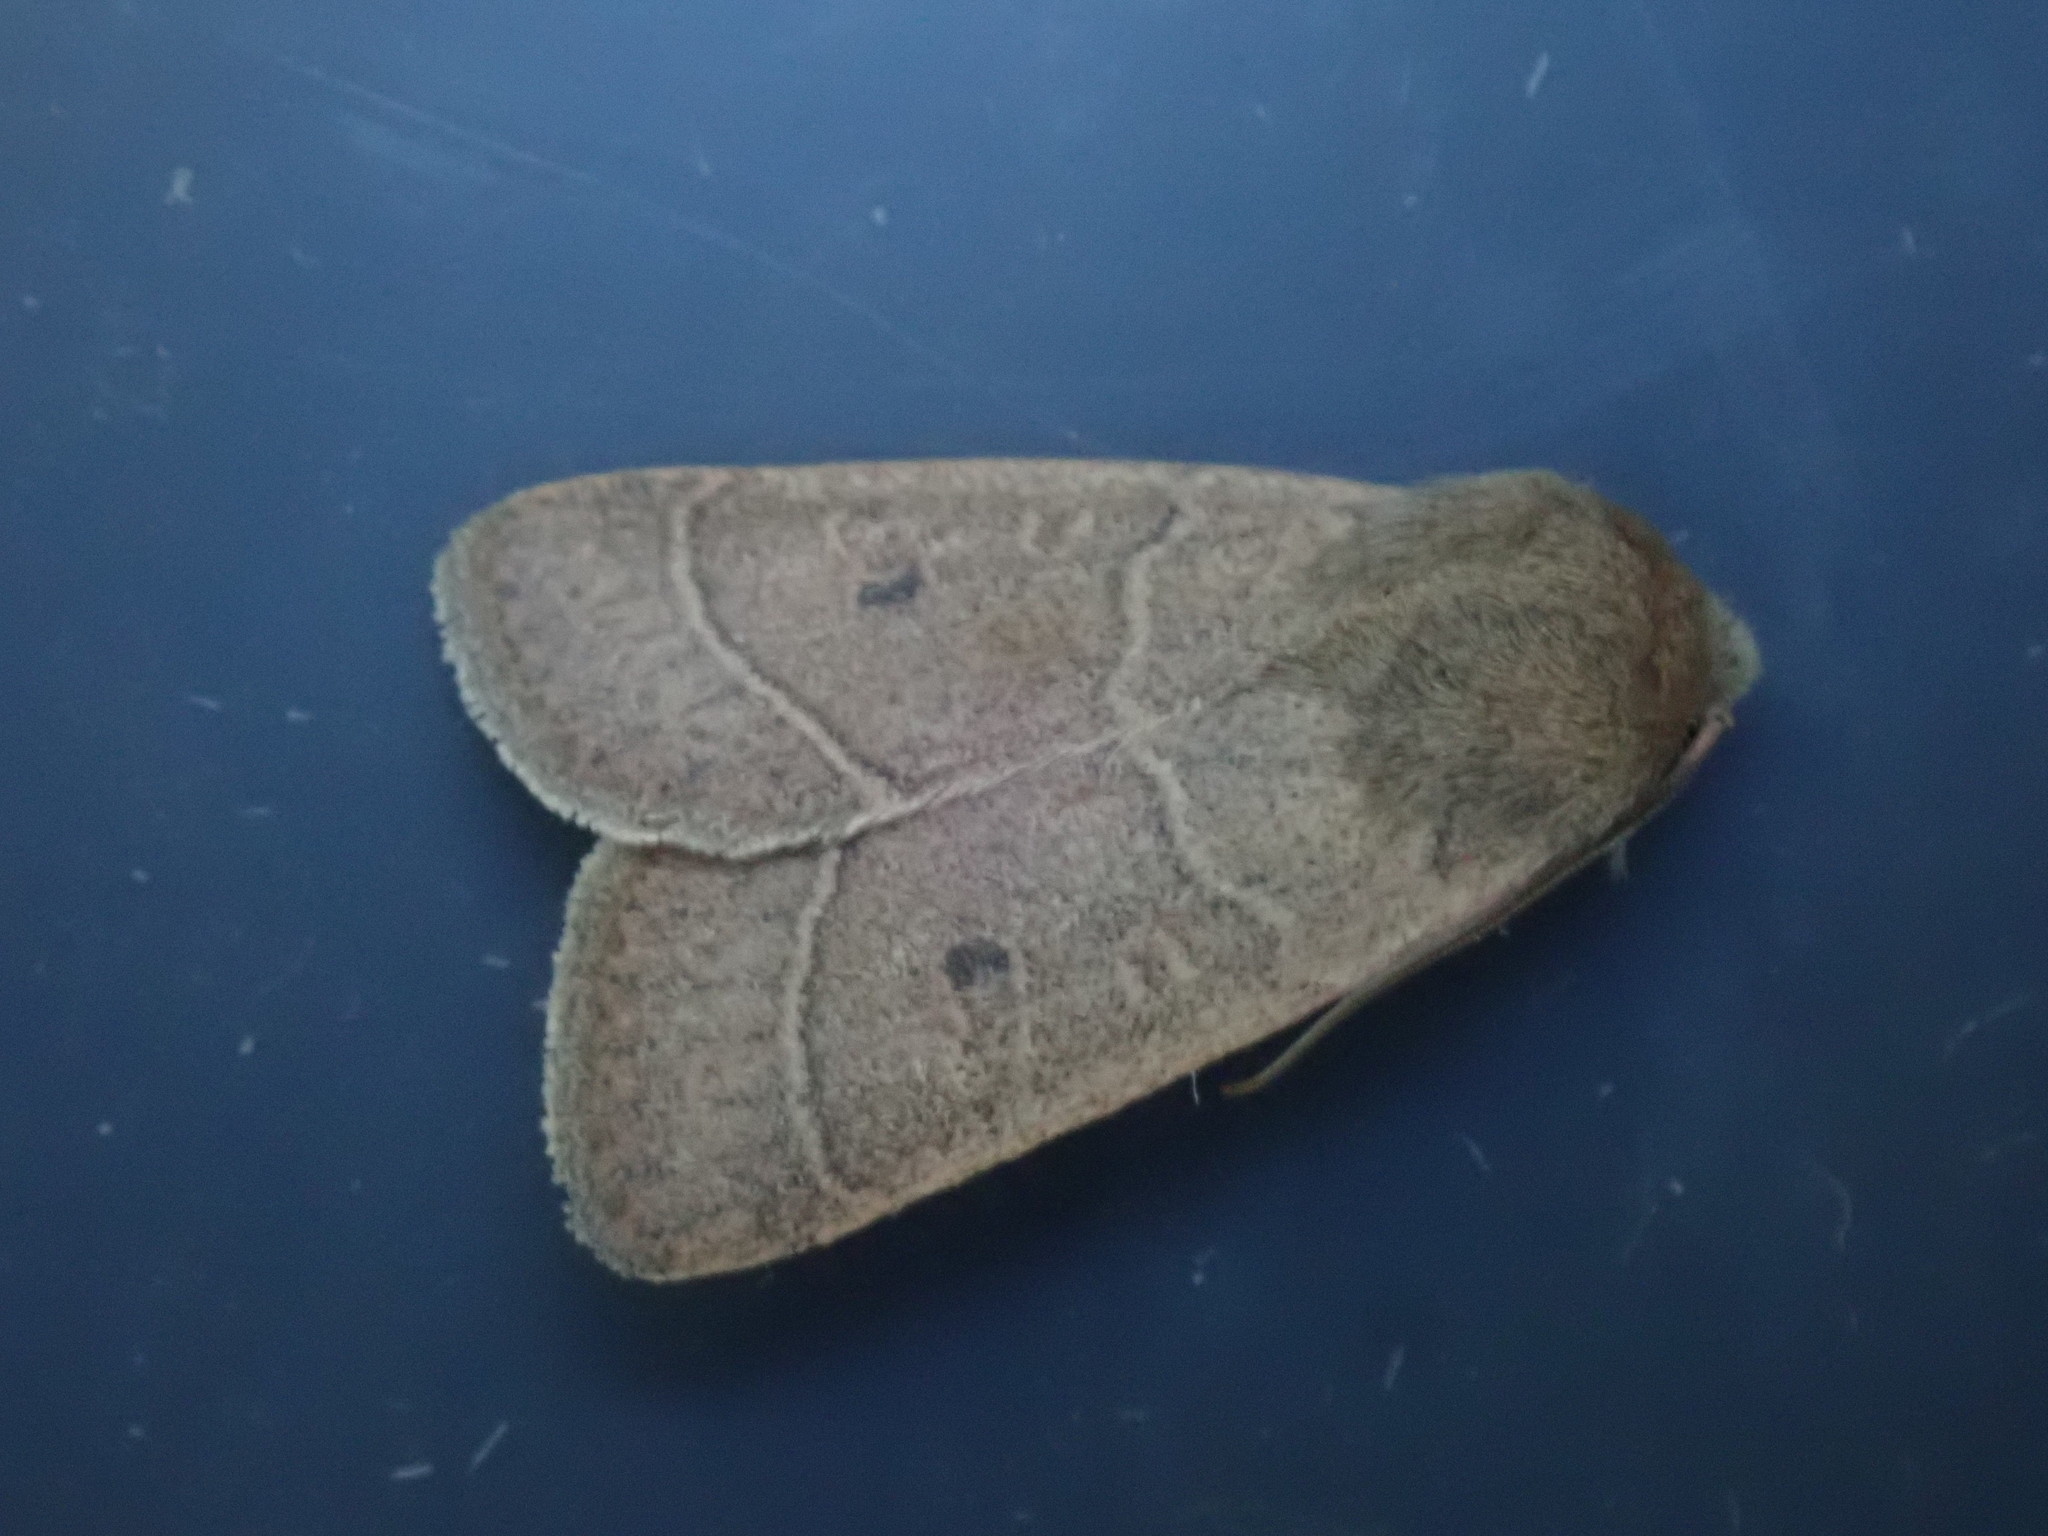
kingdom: Animalia
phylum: Arthropoda
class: Insecta
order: Lepidoptera
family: Noctuidae
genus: Ulolonche
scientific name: Ulolonche culea
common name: Sheathed quaker
